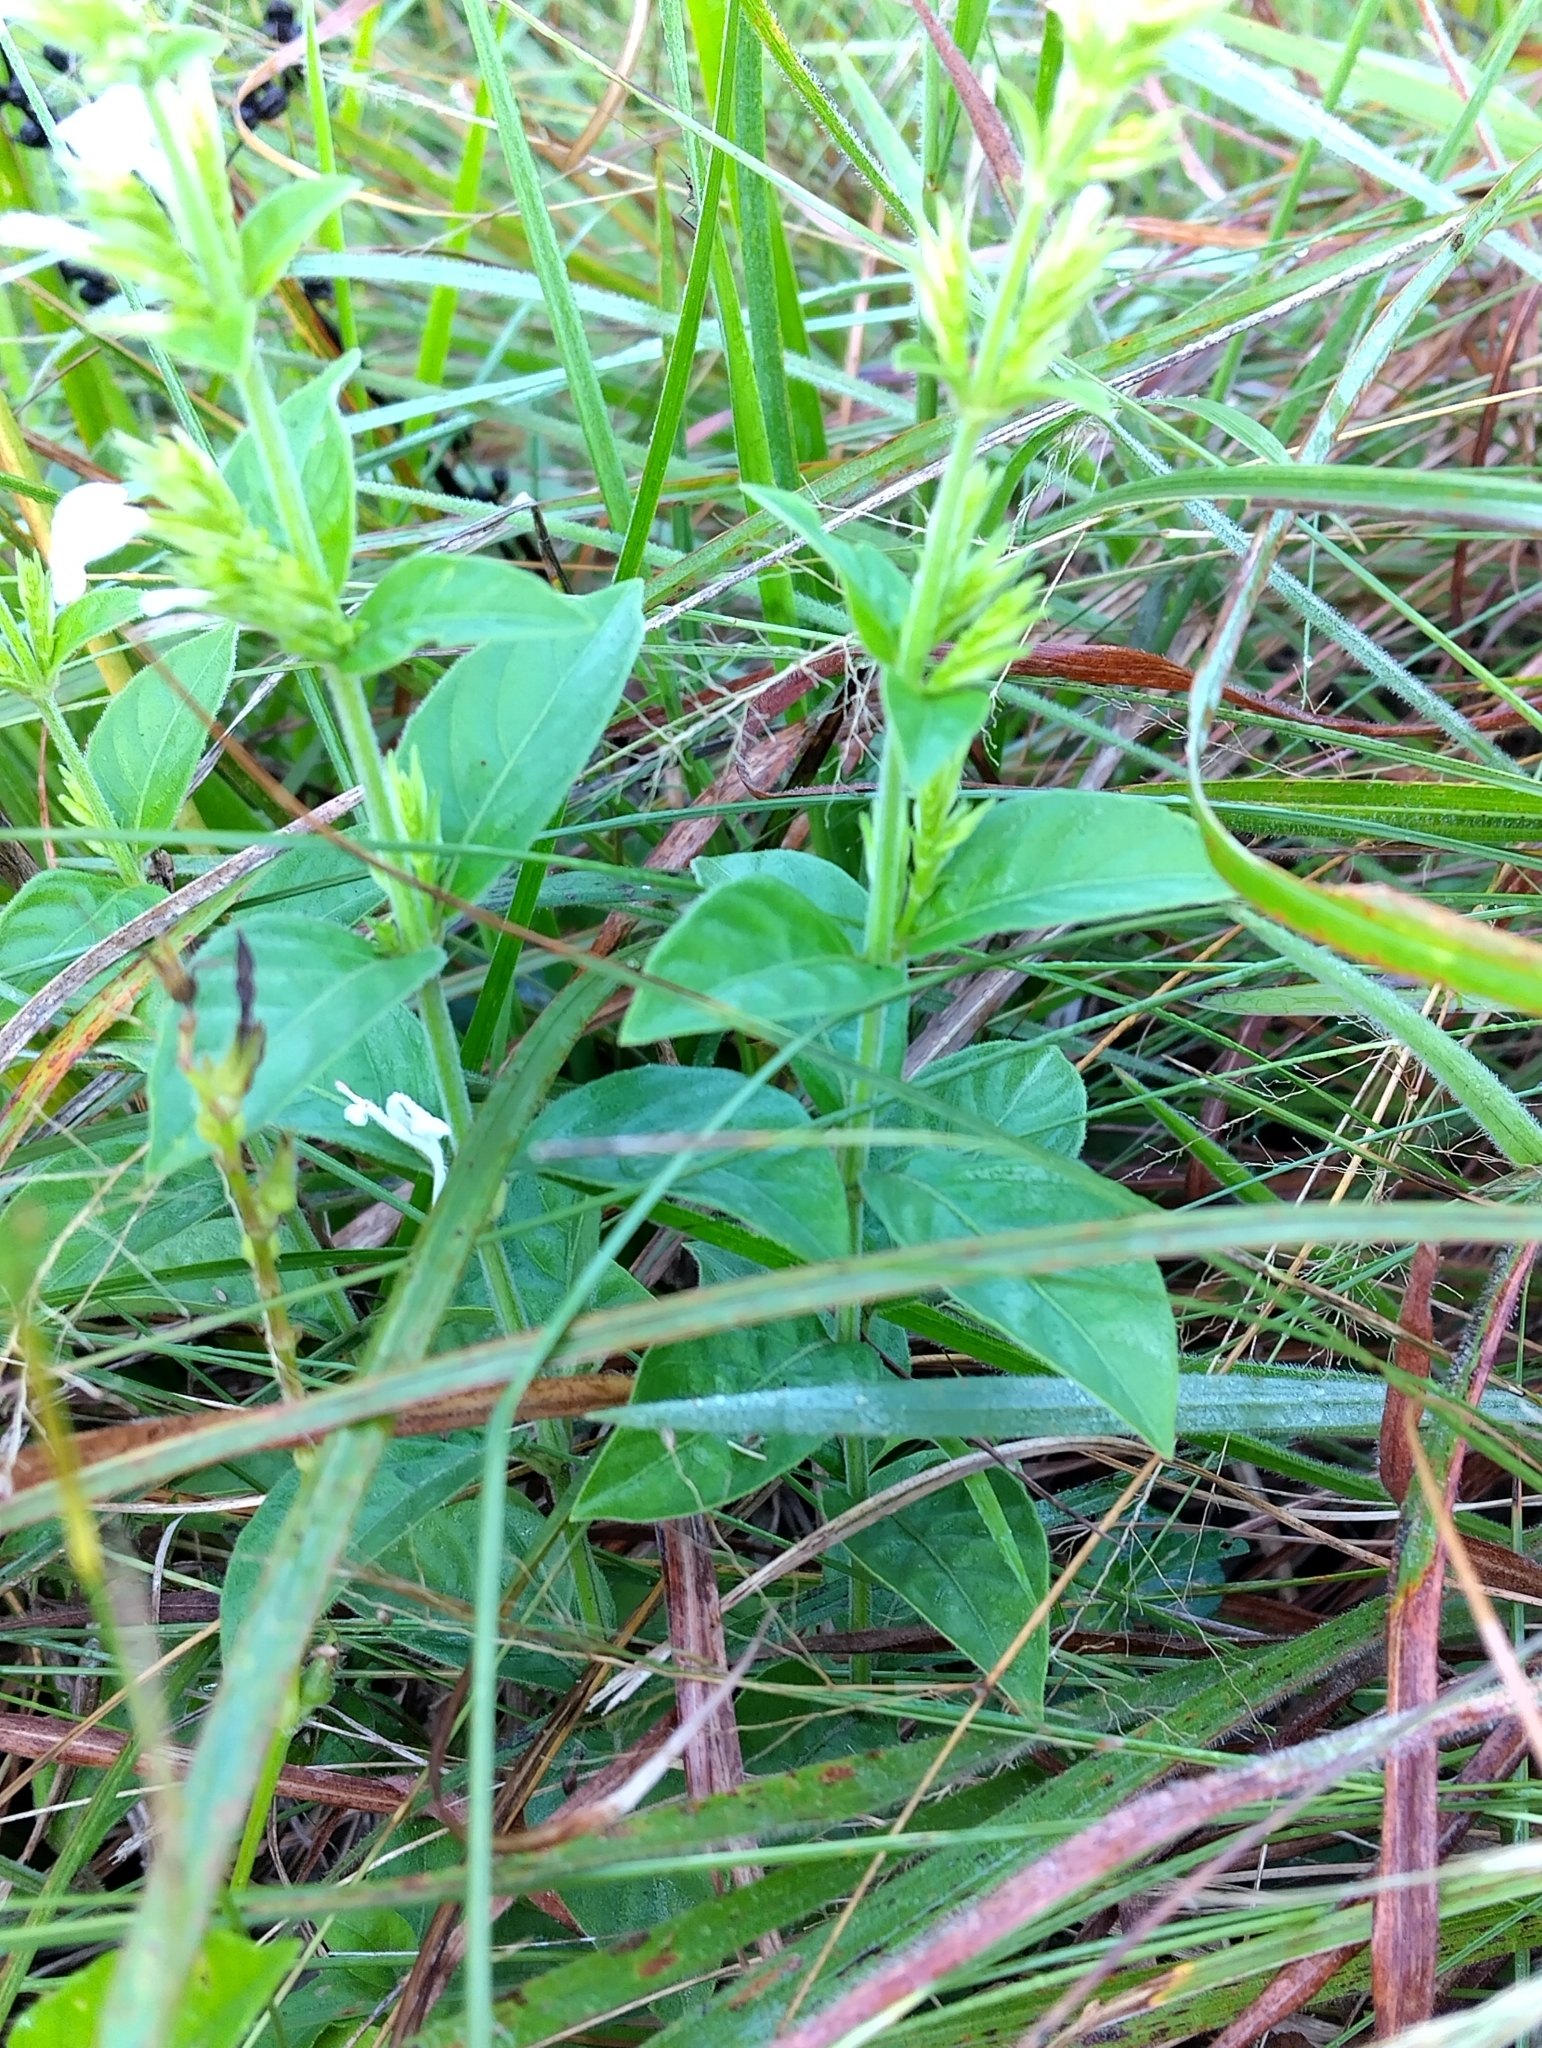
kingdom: Plantae
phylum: Tracheophyta
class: Magnoliopsida
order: Lamiales
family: Acanthaceae
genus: Hypoestes
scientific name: Hypoestes forskaolii
